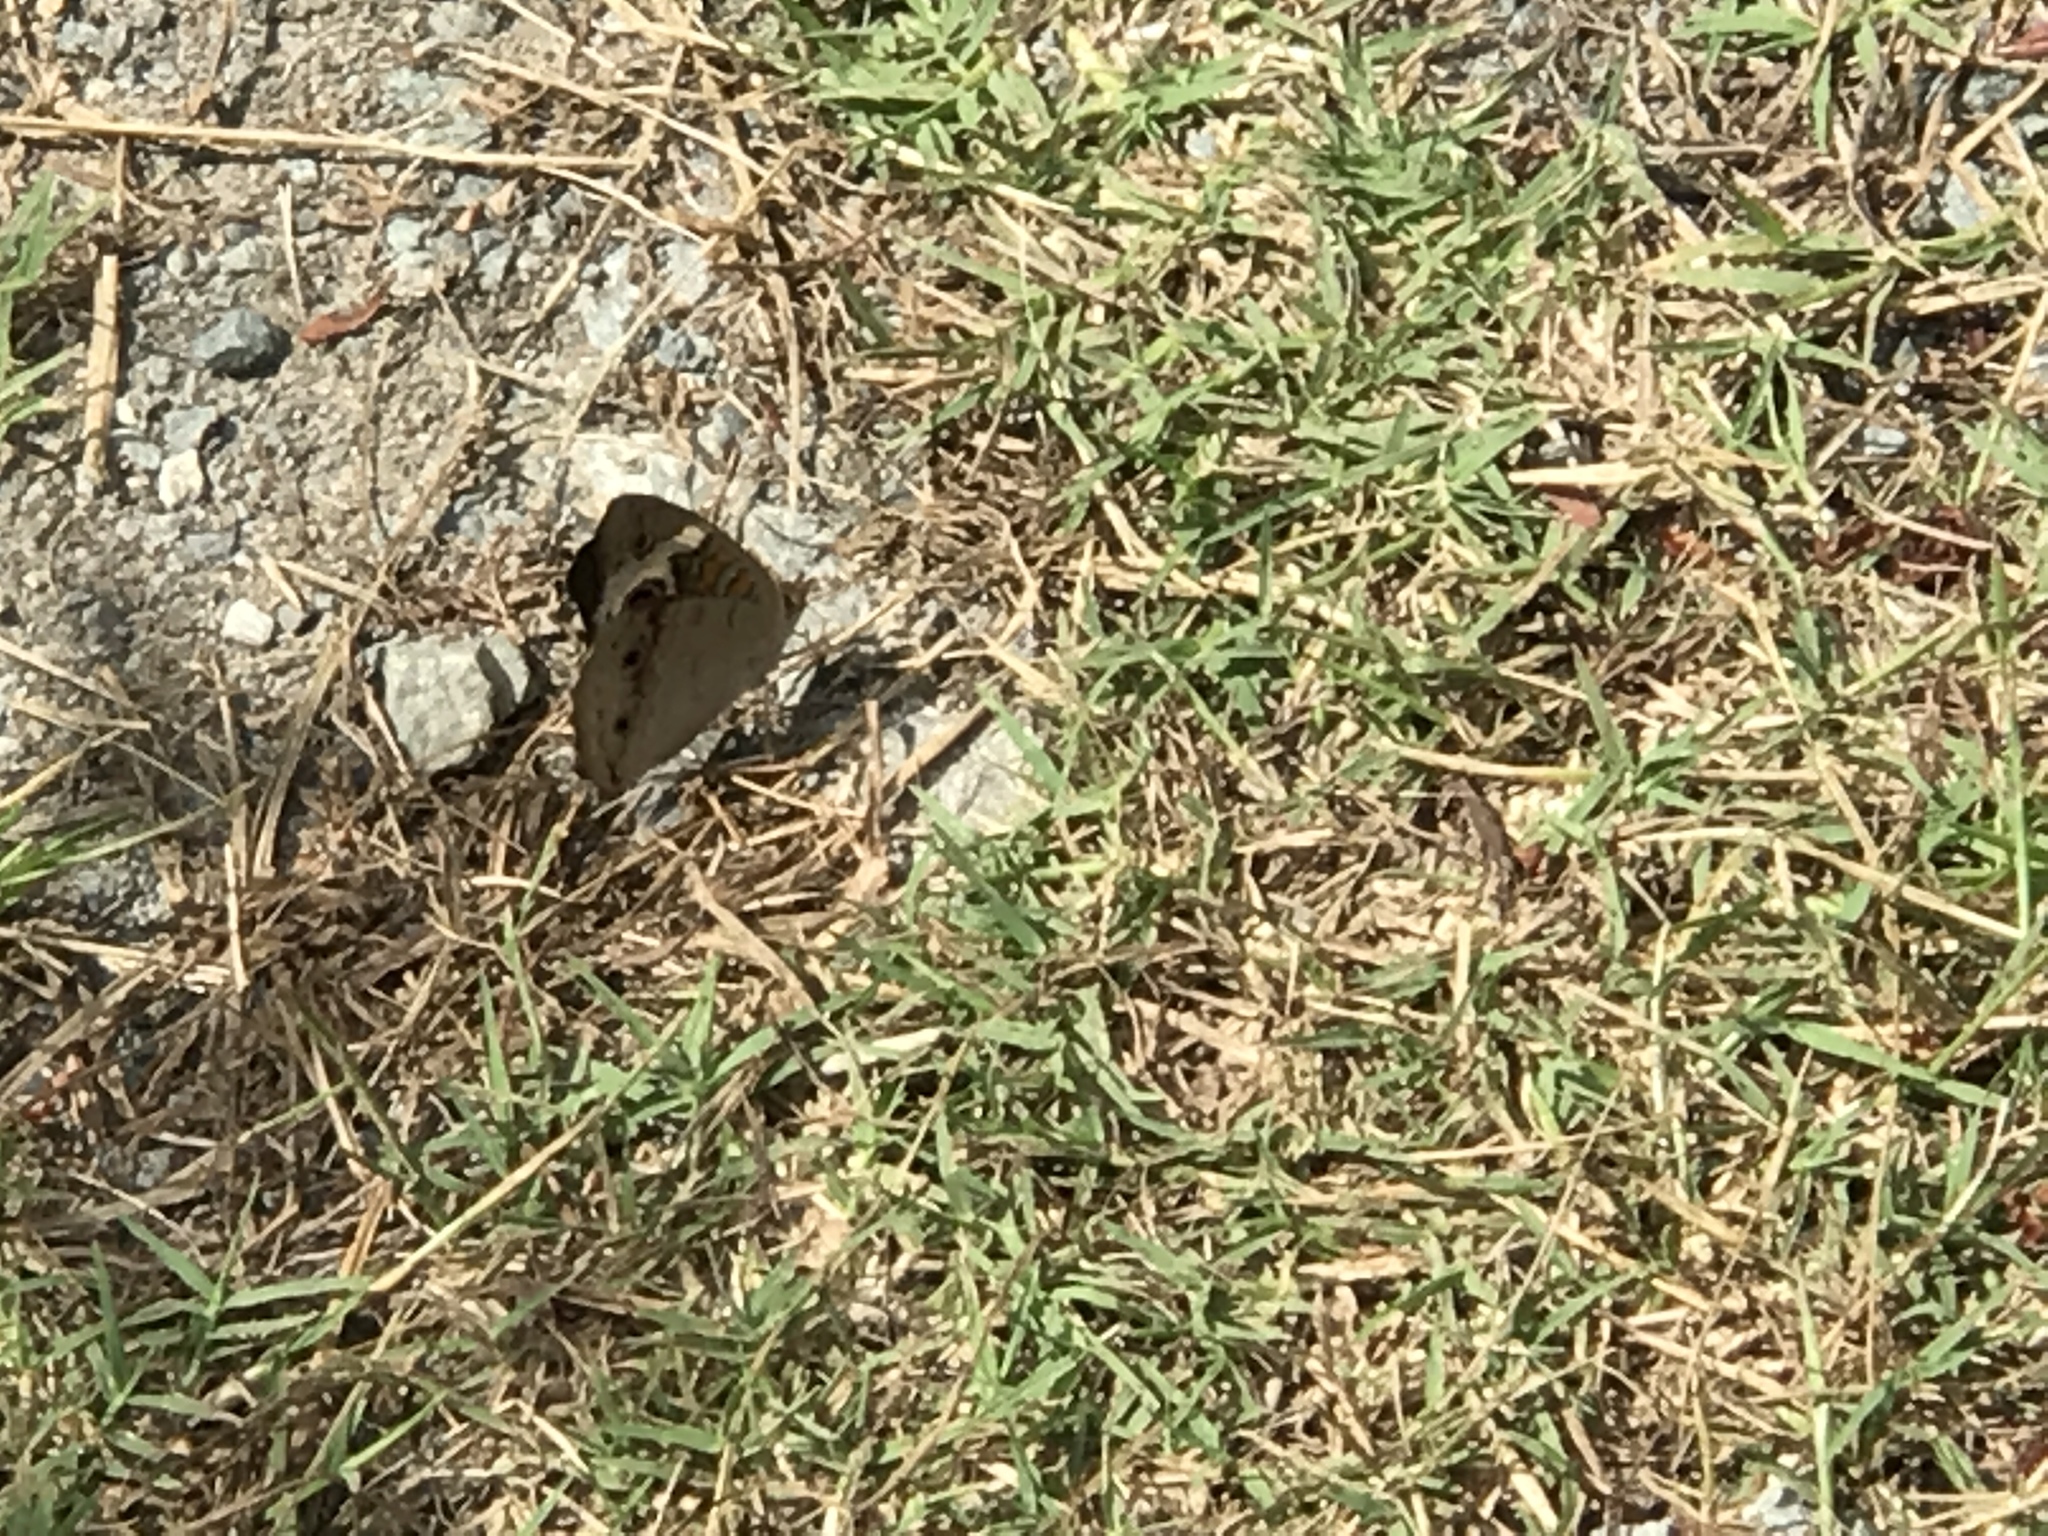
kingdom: Animalia
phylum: Arthropoda
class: Insecta
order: Lepidoptera
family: Nymphalidae
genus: Junonia
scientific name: Junonia coenia
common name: Common buckeye
